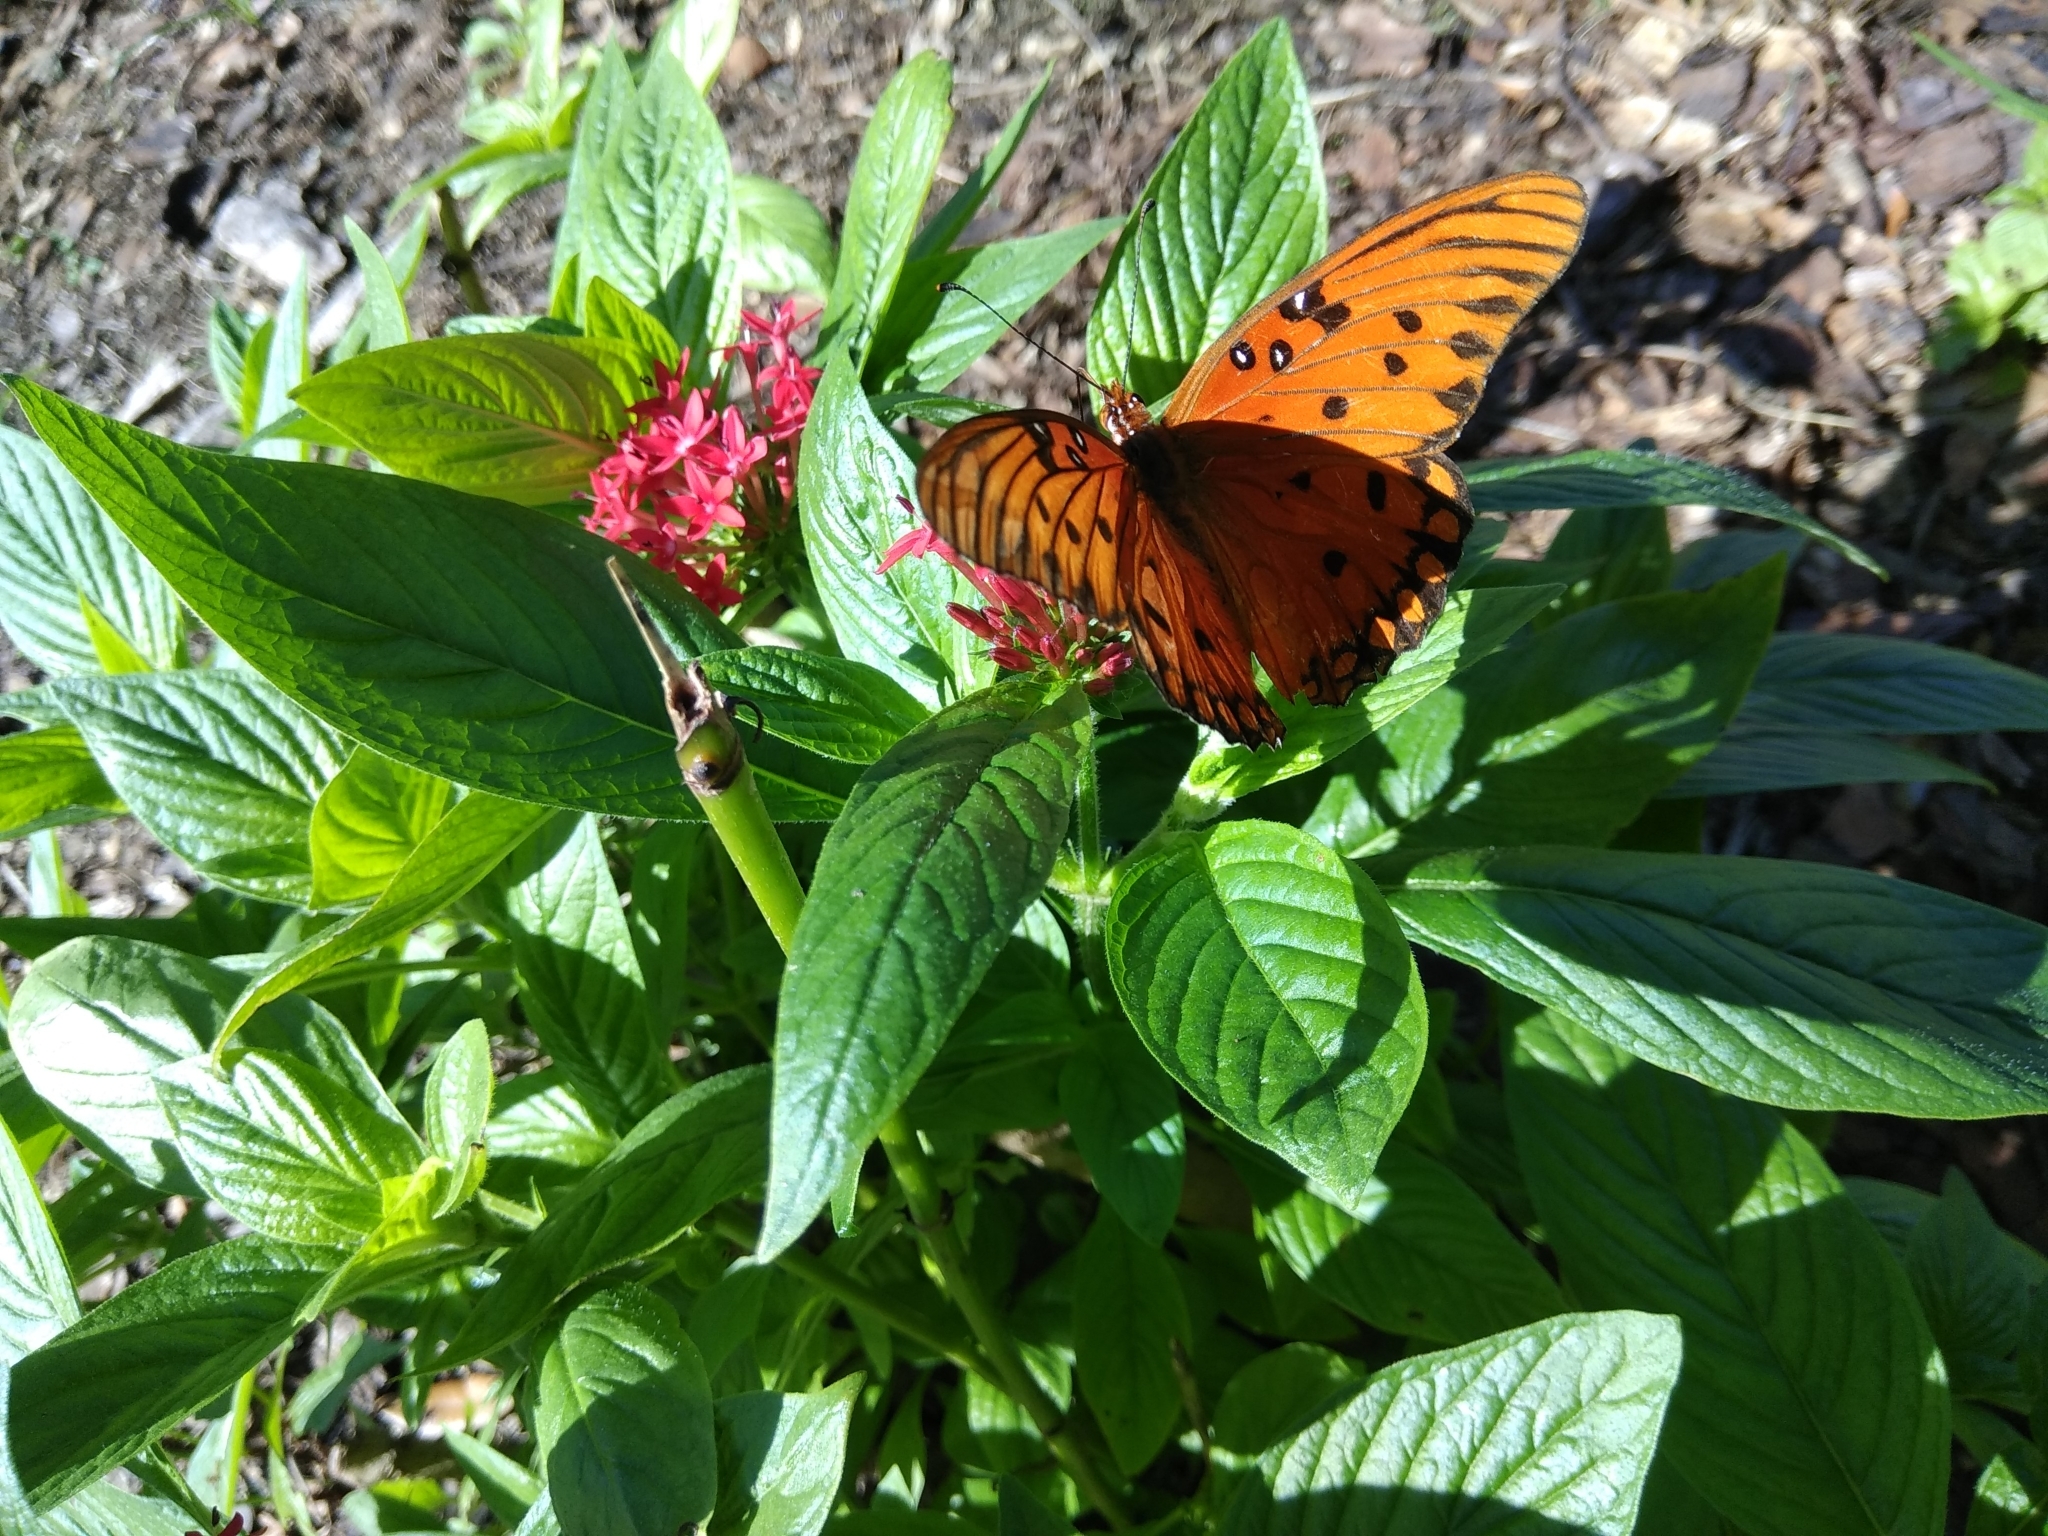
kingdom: Animalia
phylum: Arthropoda
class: Insecta
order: Lepidoptera
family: Nymphalidae
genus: Dione
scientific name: Dione vanillae
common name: Gulf fritillary
